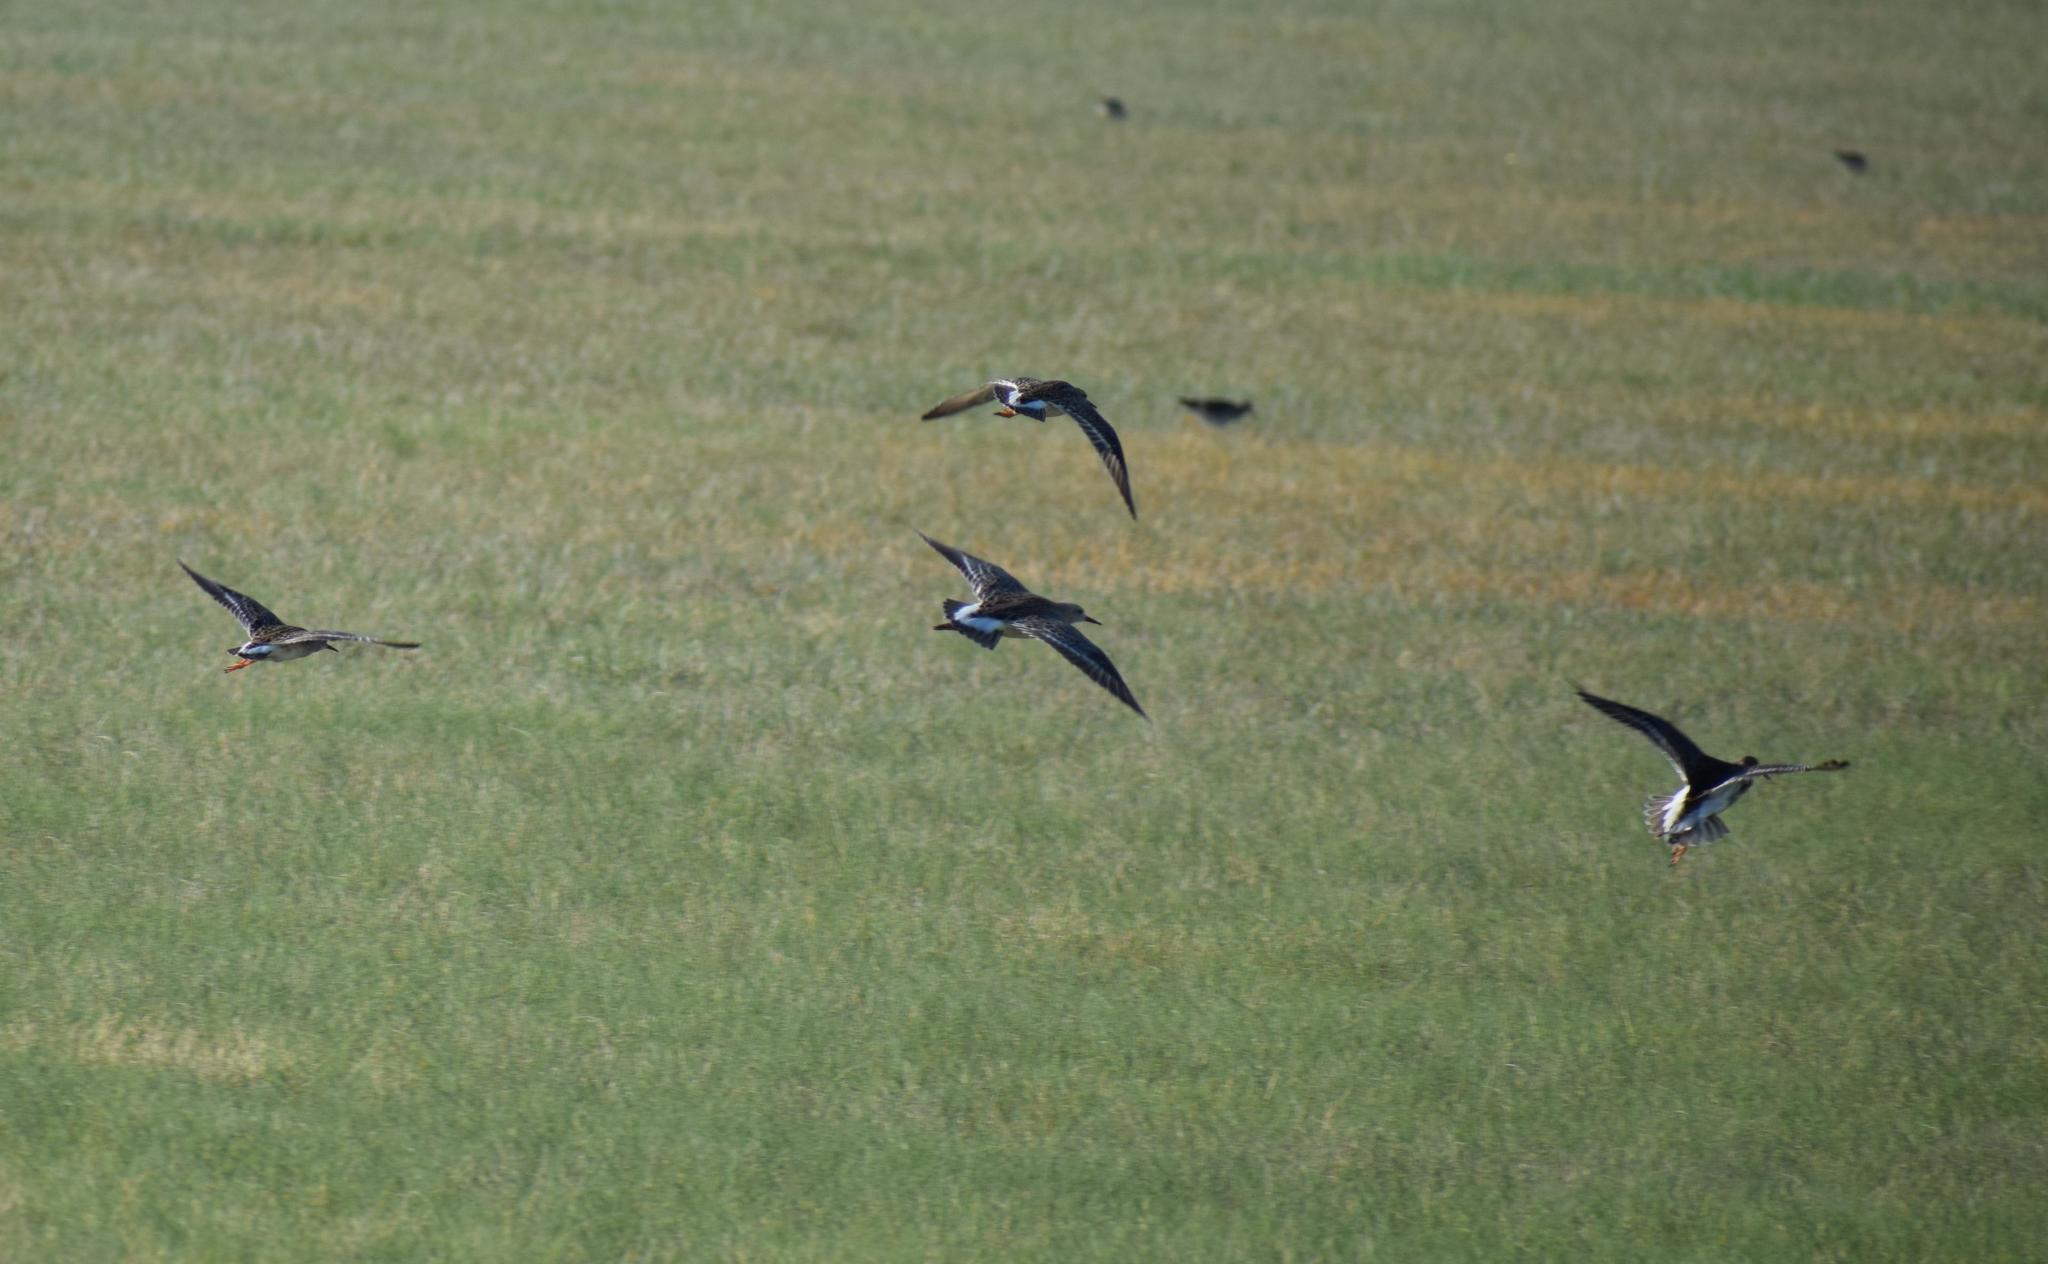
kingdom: Animalia
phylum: Chordata
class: Aves
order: Charadriiformes
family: Scolopacidae
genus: Calidris
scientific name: Calidris pugnax
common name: Ruff
